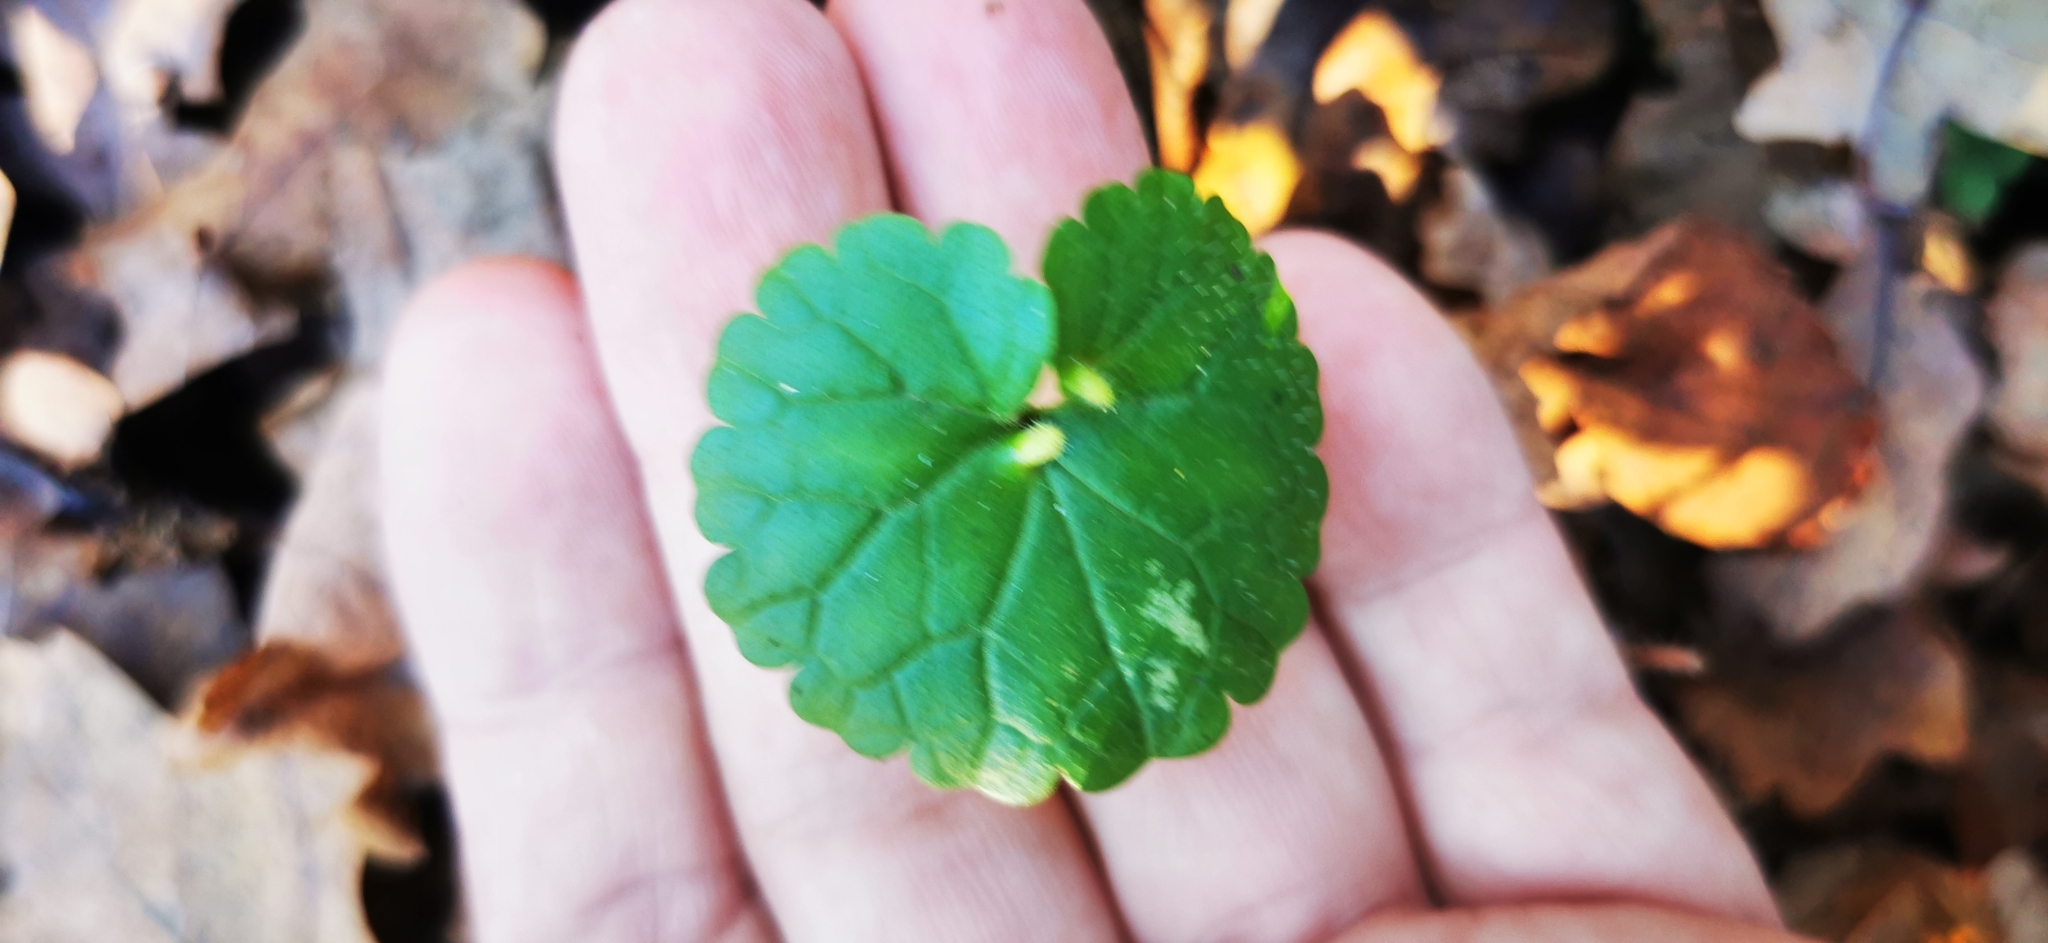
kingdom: Plantae
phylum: Tracheophyta
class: Magnoliopsida
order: Lamiales
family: Lamiaceae
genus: Glechoma
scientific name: Glechoma hederacea
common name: Ground ivy
